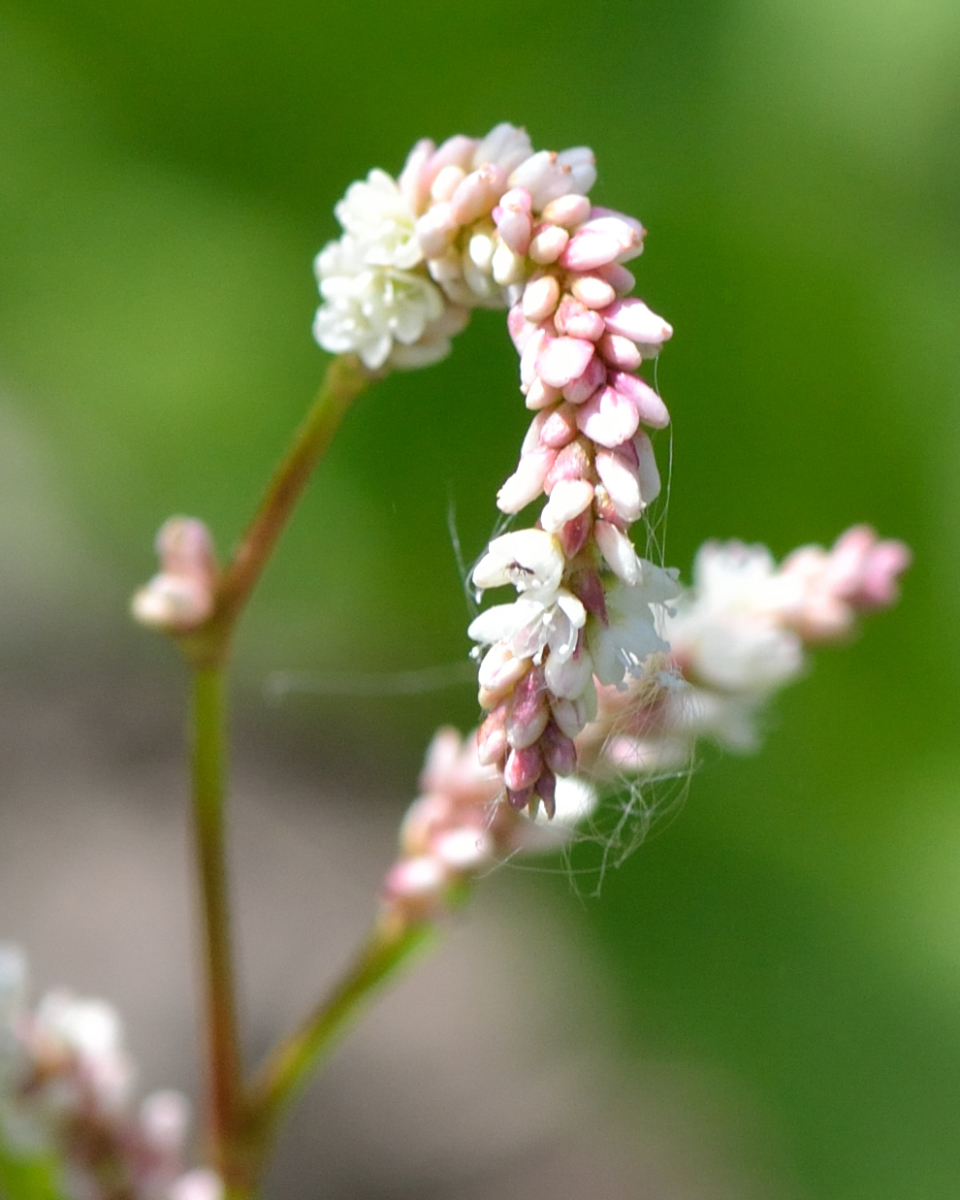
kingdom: Plantae
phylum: Tracheophyta
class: Magnoliopsida
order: Caryophyllales
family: Polygonaceae
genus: Persicaria
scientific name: Persicaria lapathifolia
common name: Curlytop knotweed
